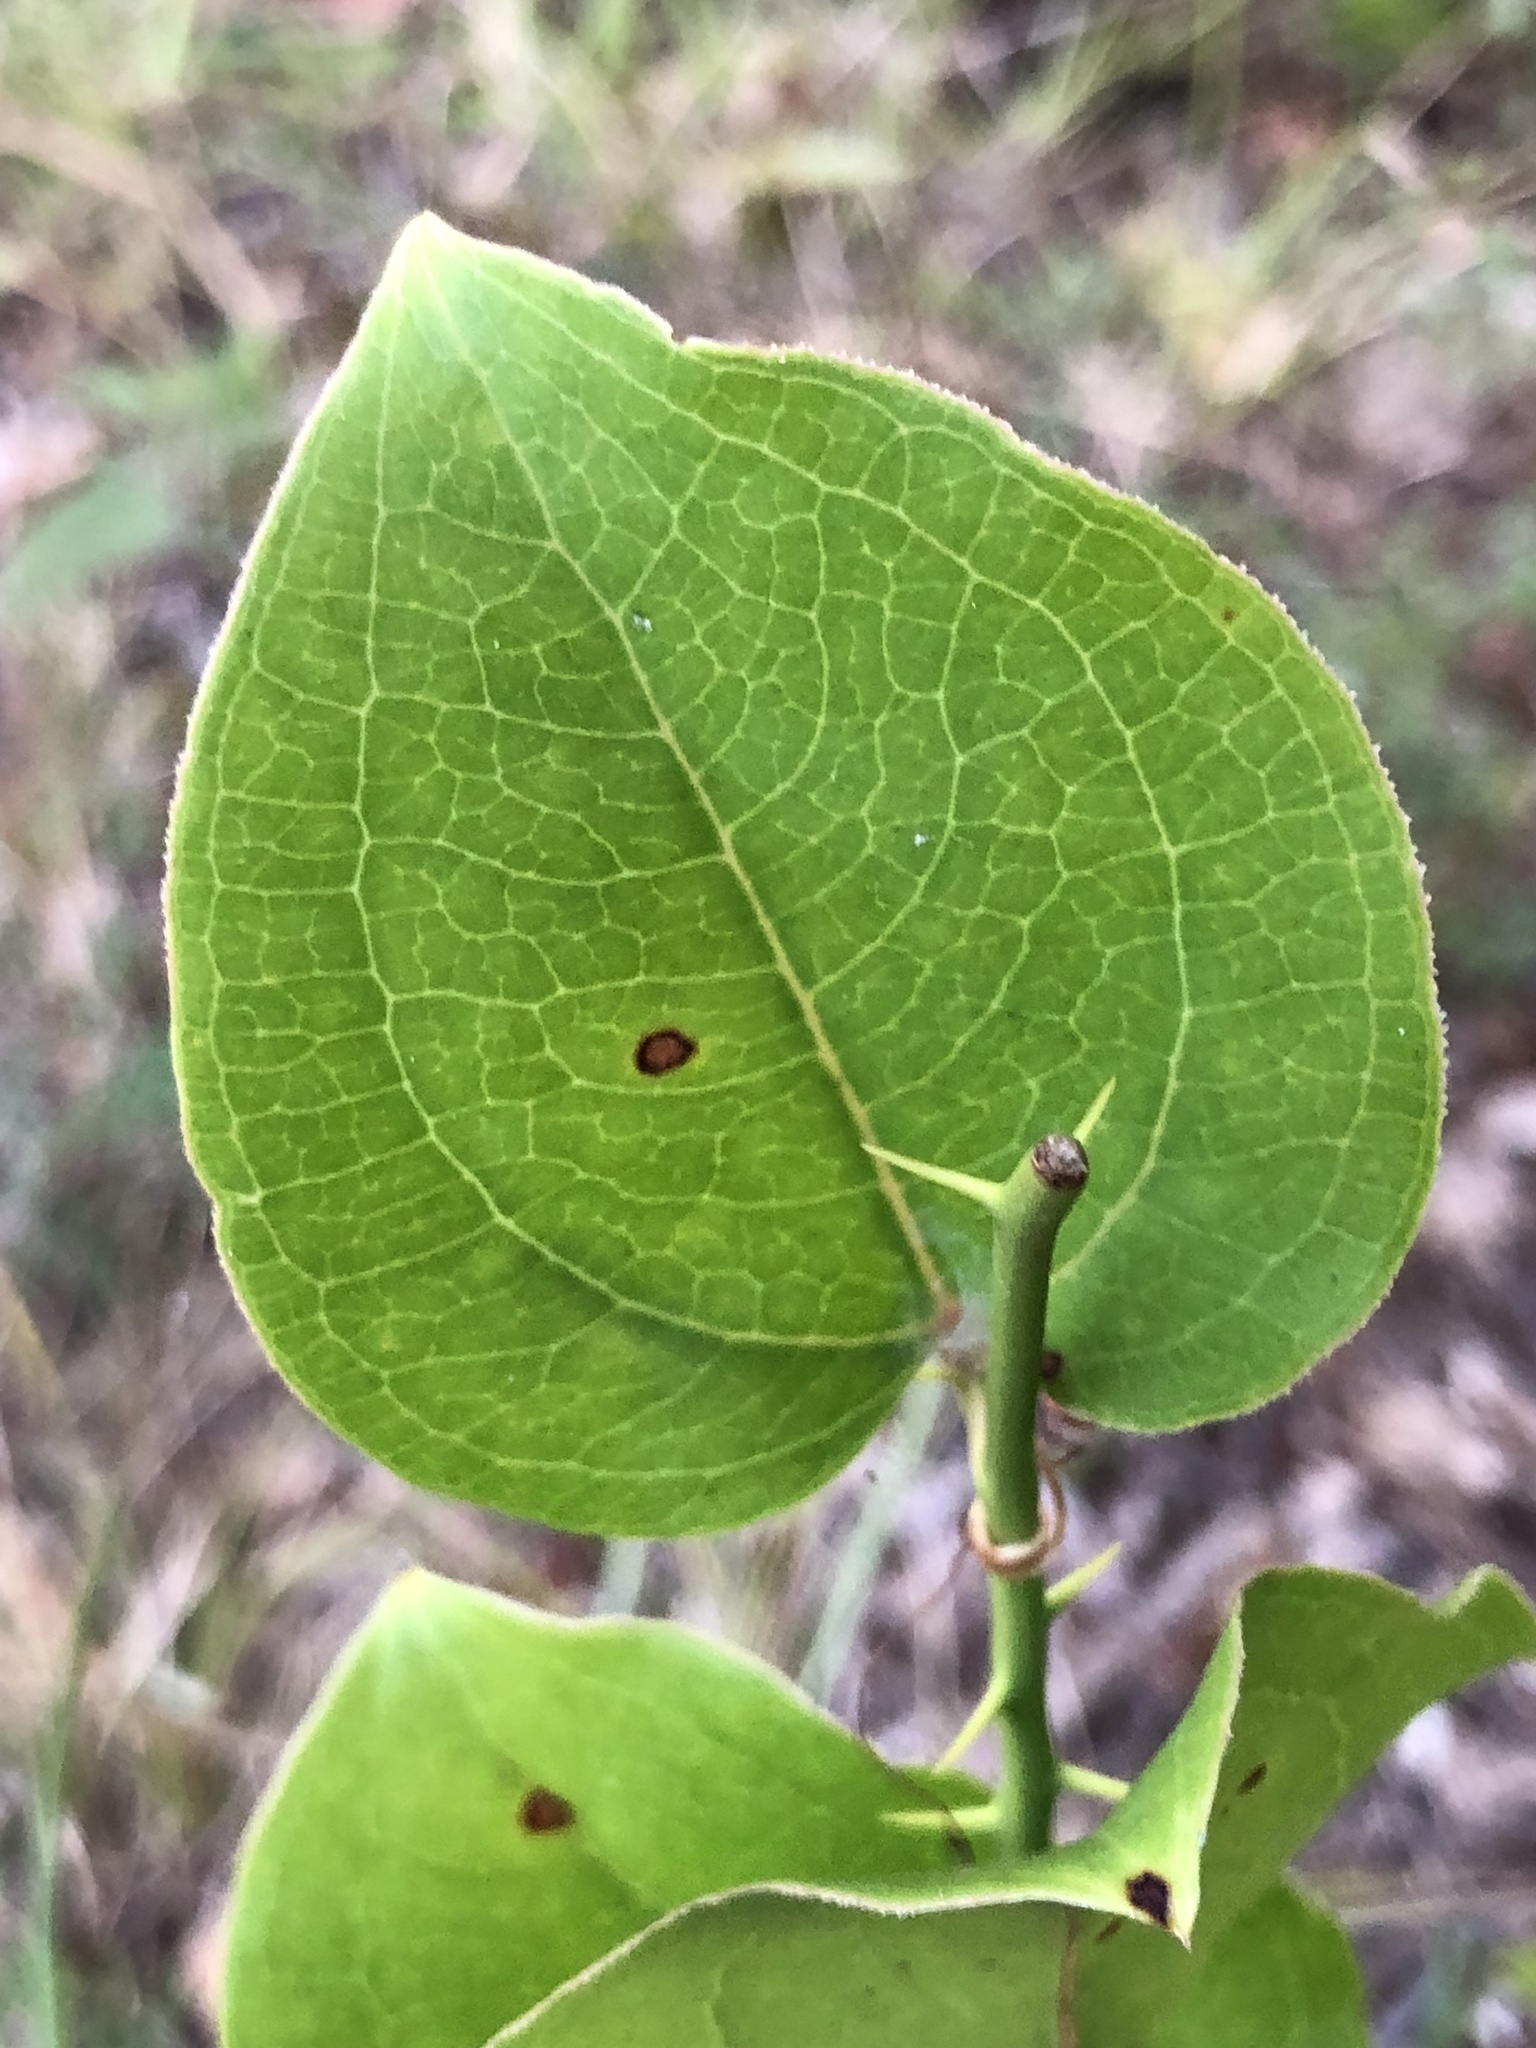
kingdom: Plantae
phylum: Tracheophyta
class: Liliopsida
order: Liliales
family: Smilacaceae
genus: Smilax
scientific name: Smilax rotundifolia
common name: Bullbriar
